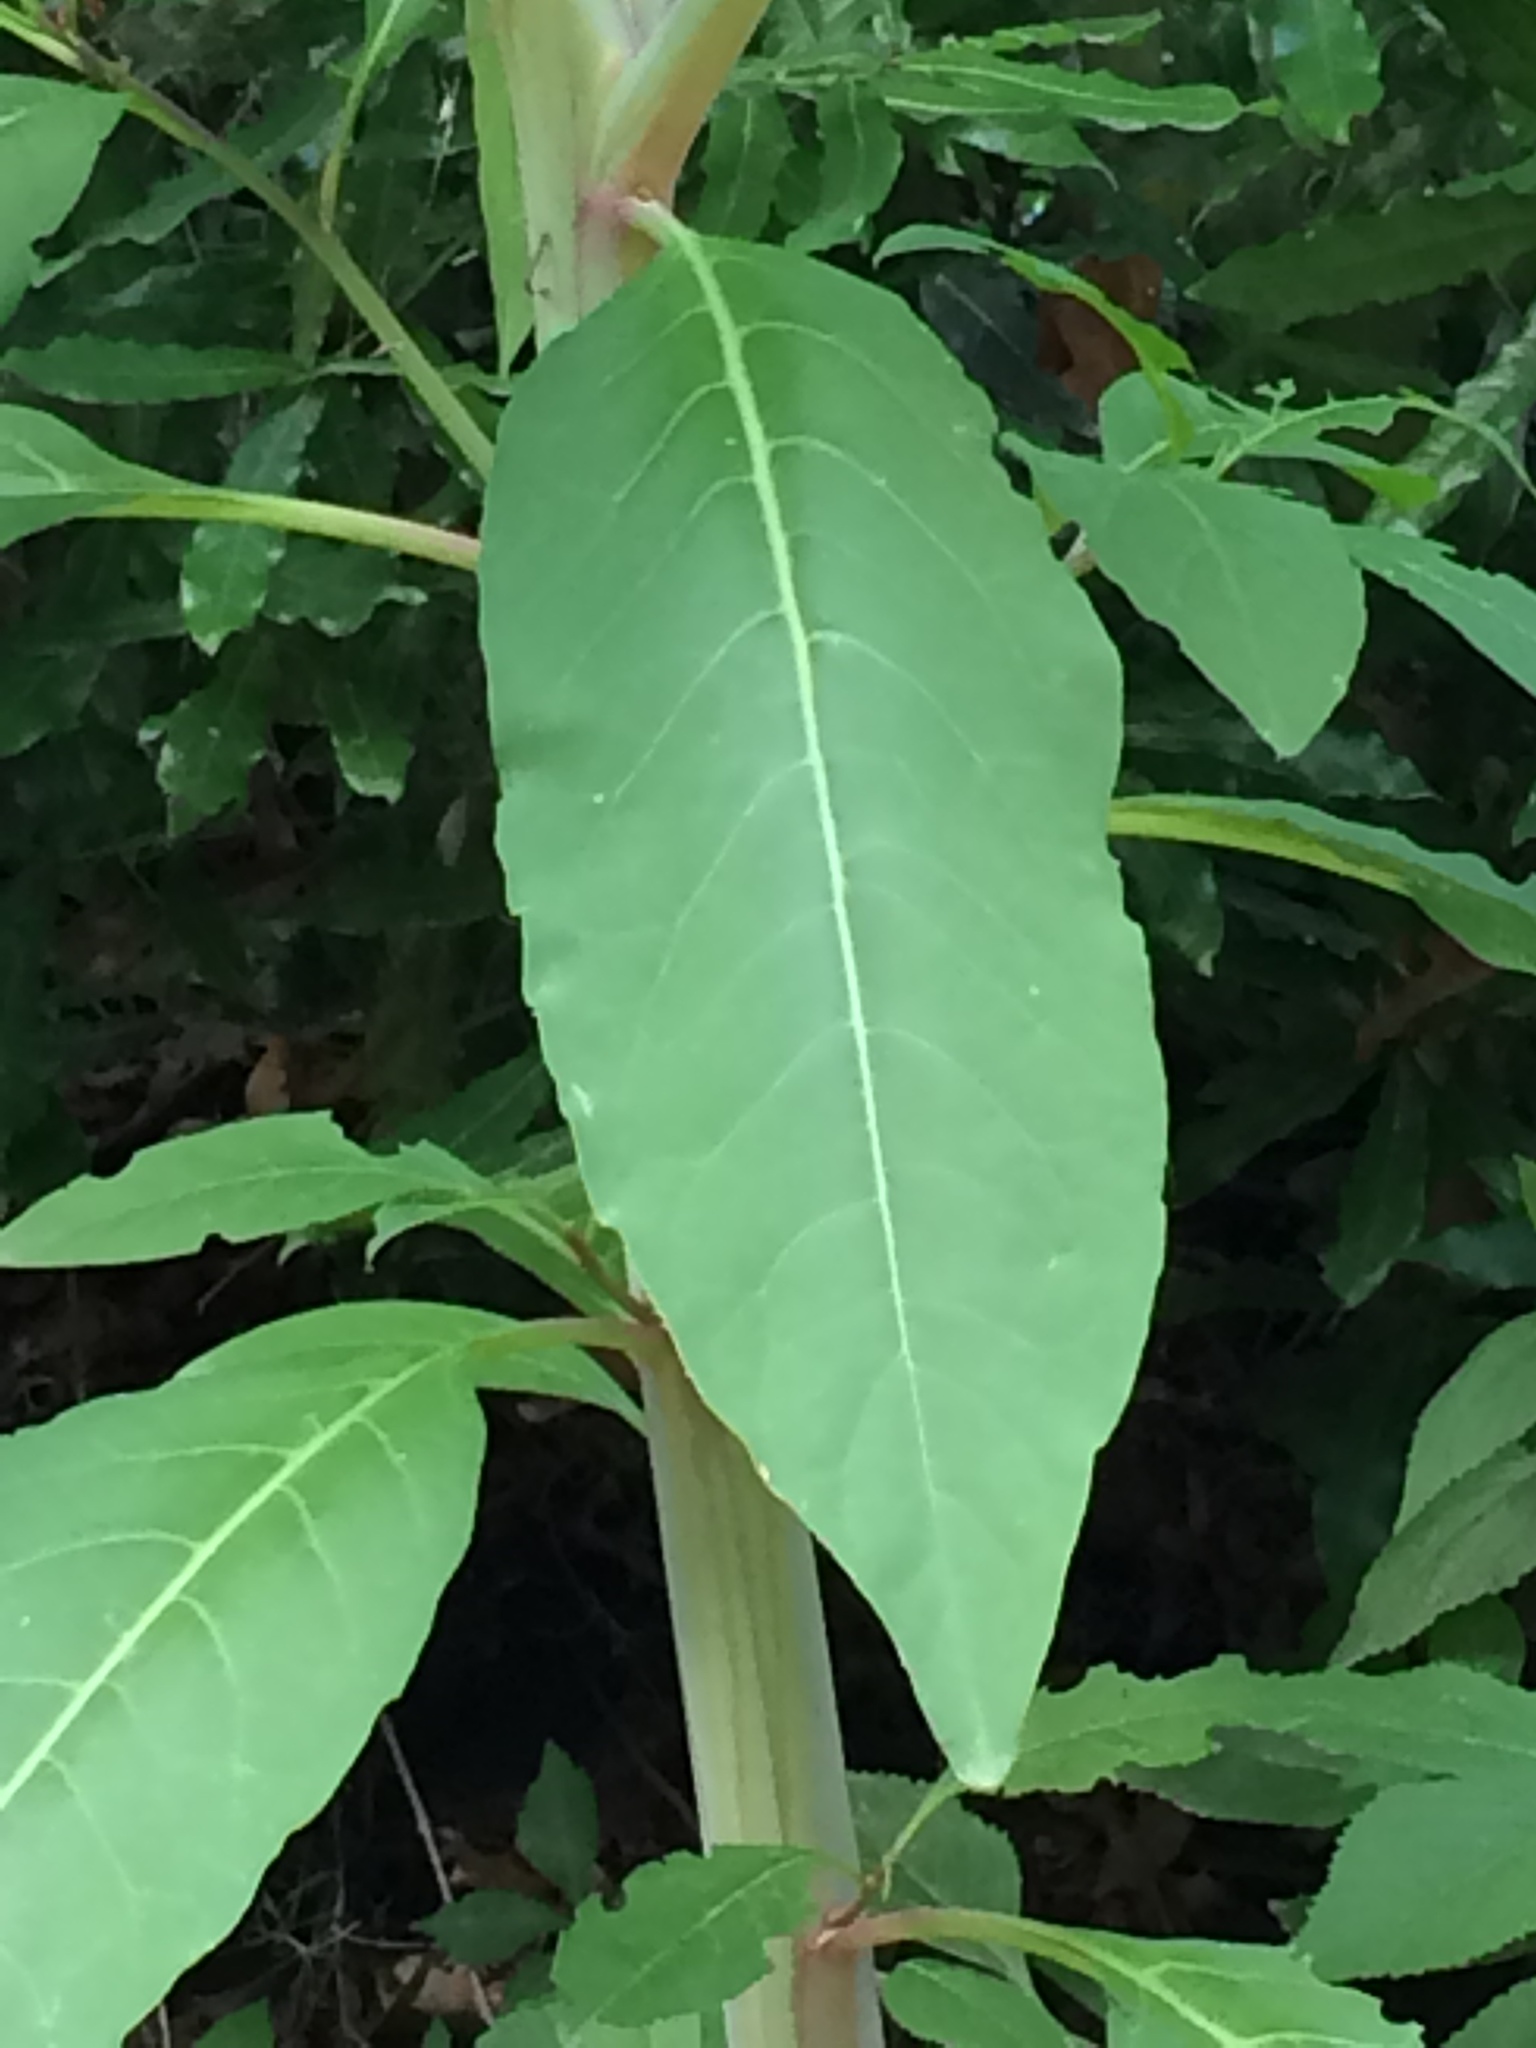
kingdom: Plantae
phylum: Tracheophyta
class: Magnoliopsida
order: Caryophyllales
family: Phytolaccaceae
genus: Phytolacca
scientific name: Phytolacca americana
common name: American pokeweed
